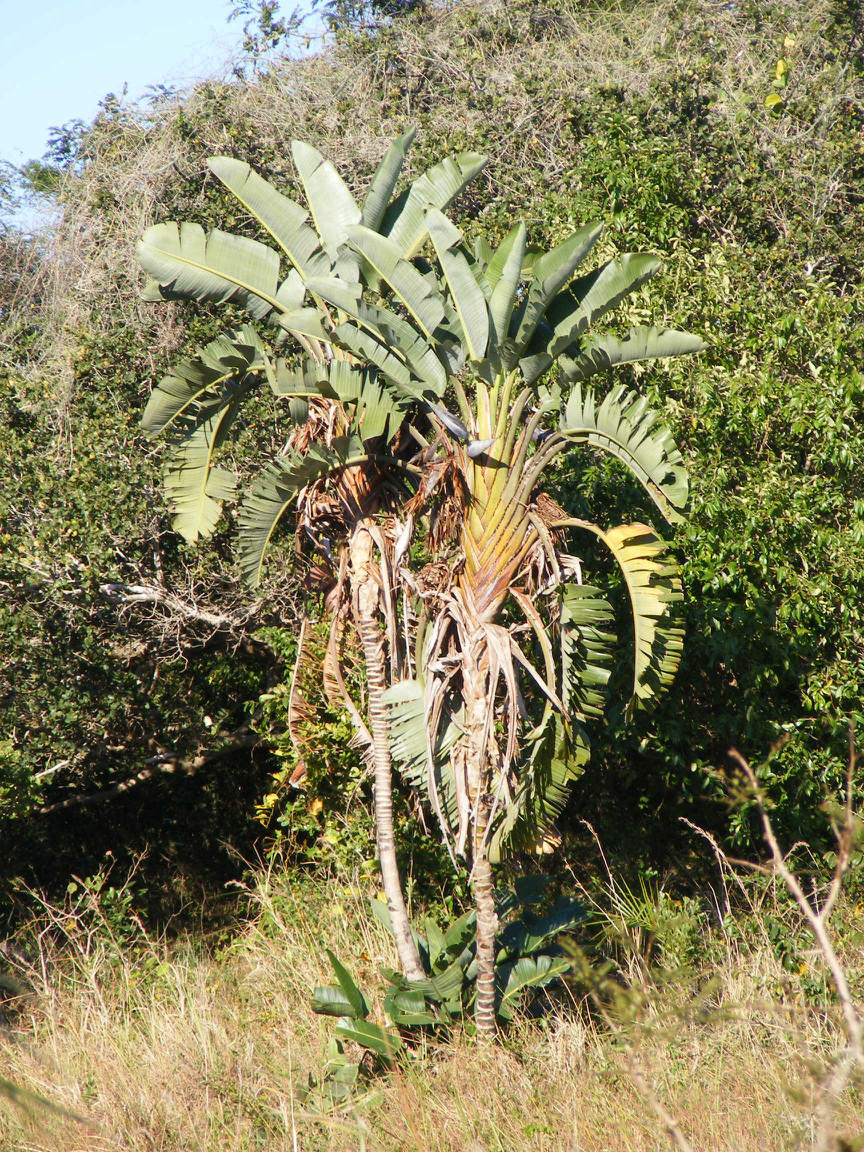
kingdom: Plantae
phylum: Tracheophyta
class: Liliopsida
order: Zingiberales
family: Strelitziaceae
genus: Strelitzia
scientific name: Strelitzia nicolai
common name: Bird-of-paradise tree
